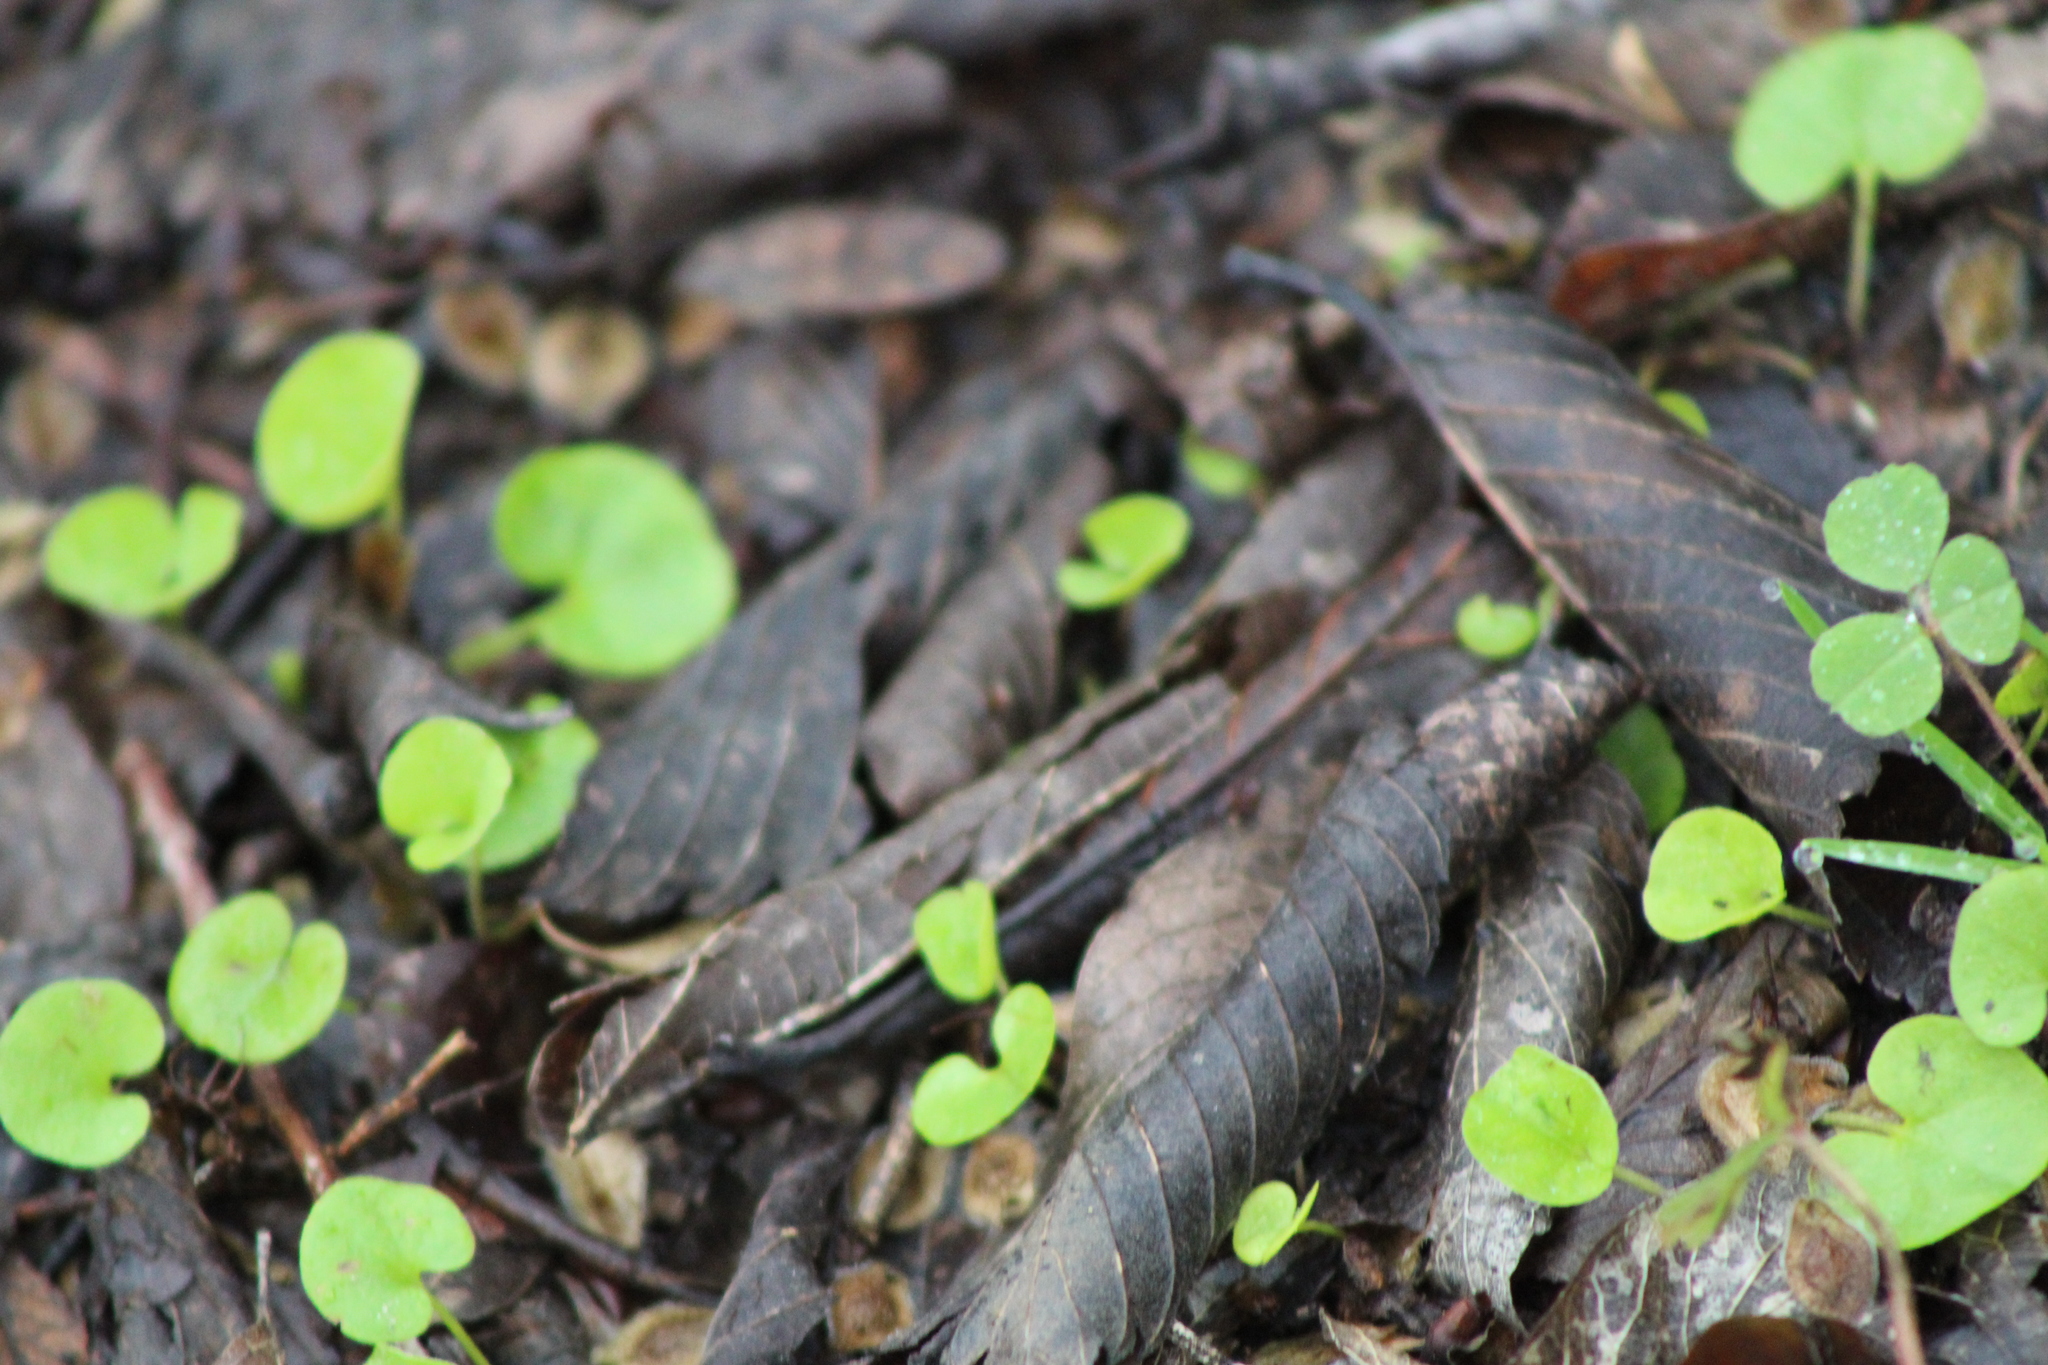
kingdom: Plantae
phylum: Tracheophyta
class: Magnoliopsida
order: Solanales
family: Convolvulaceae
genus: Dichondra
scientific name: Dichondra carolinensis
